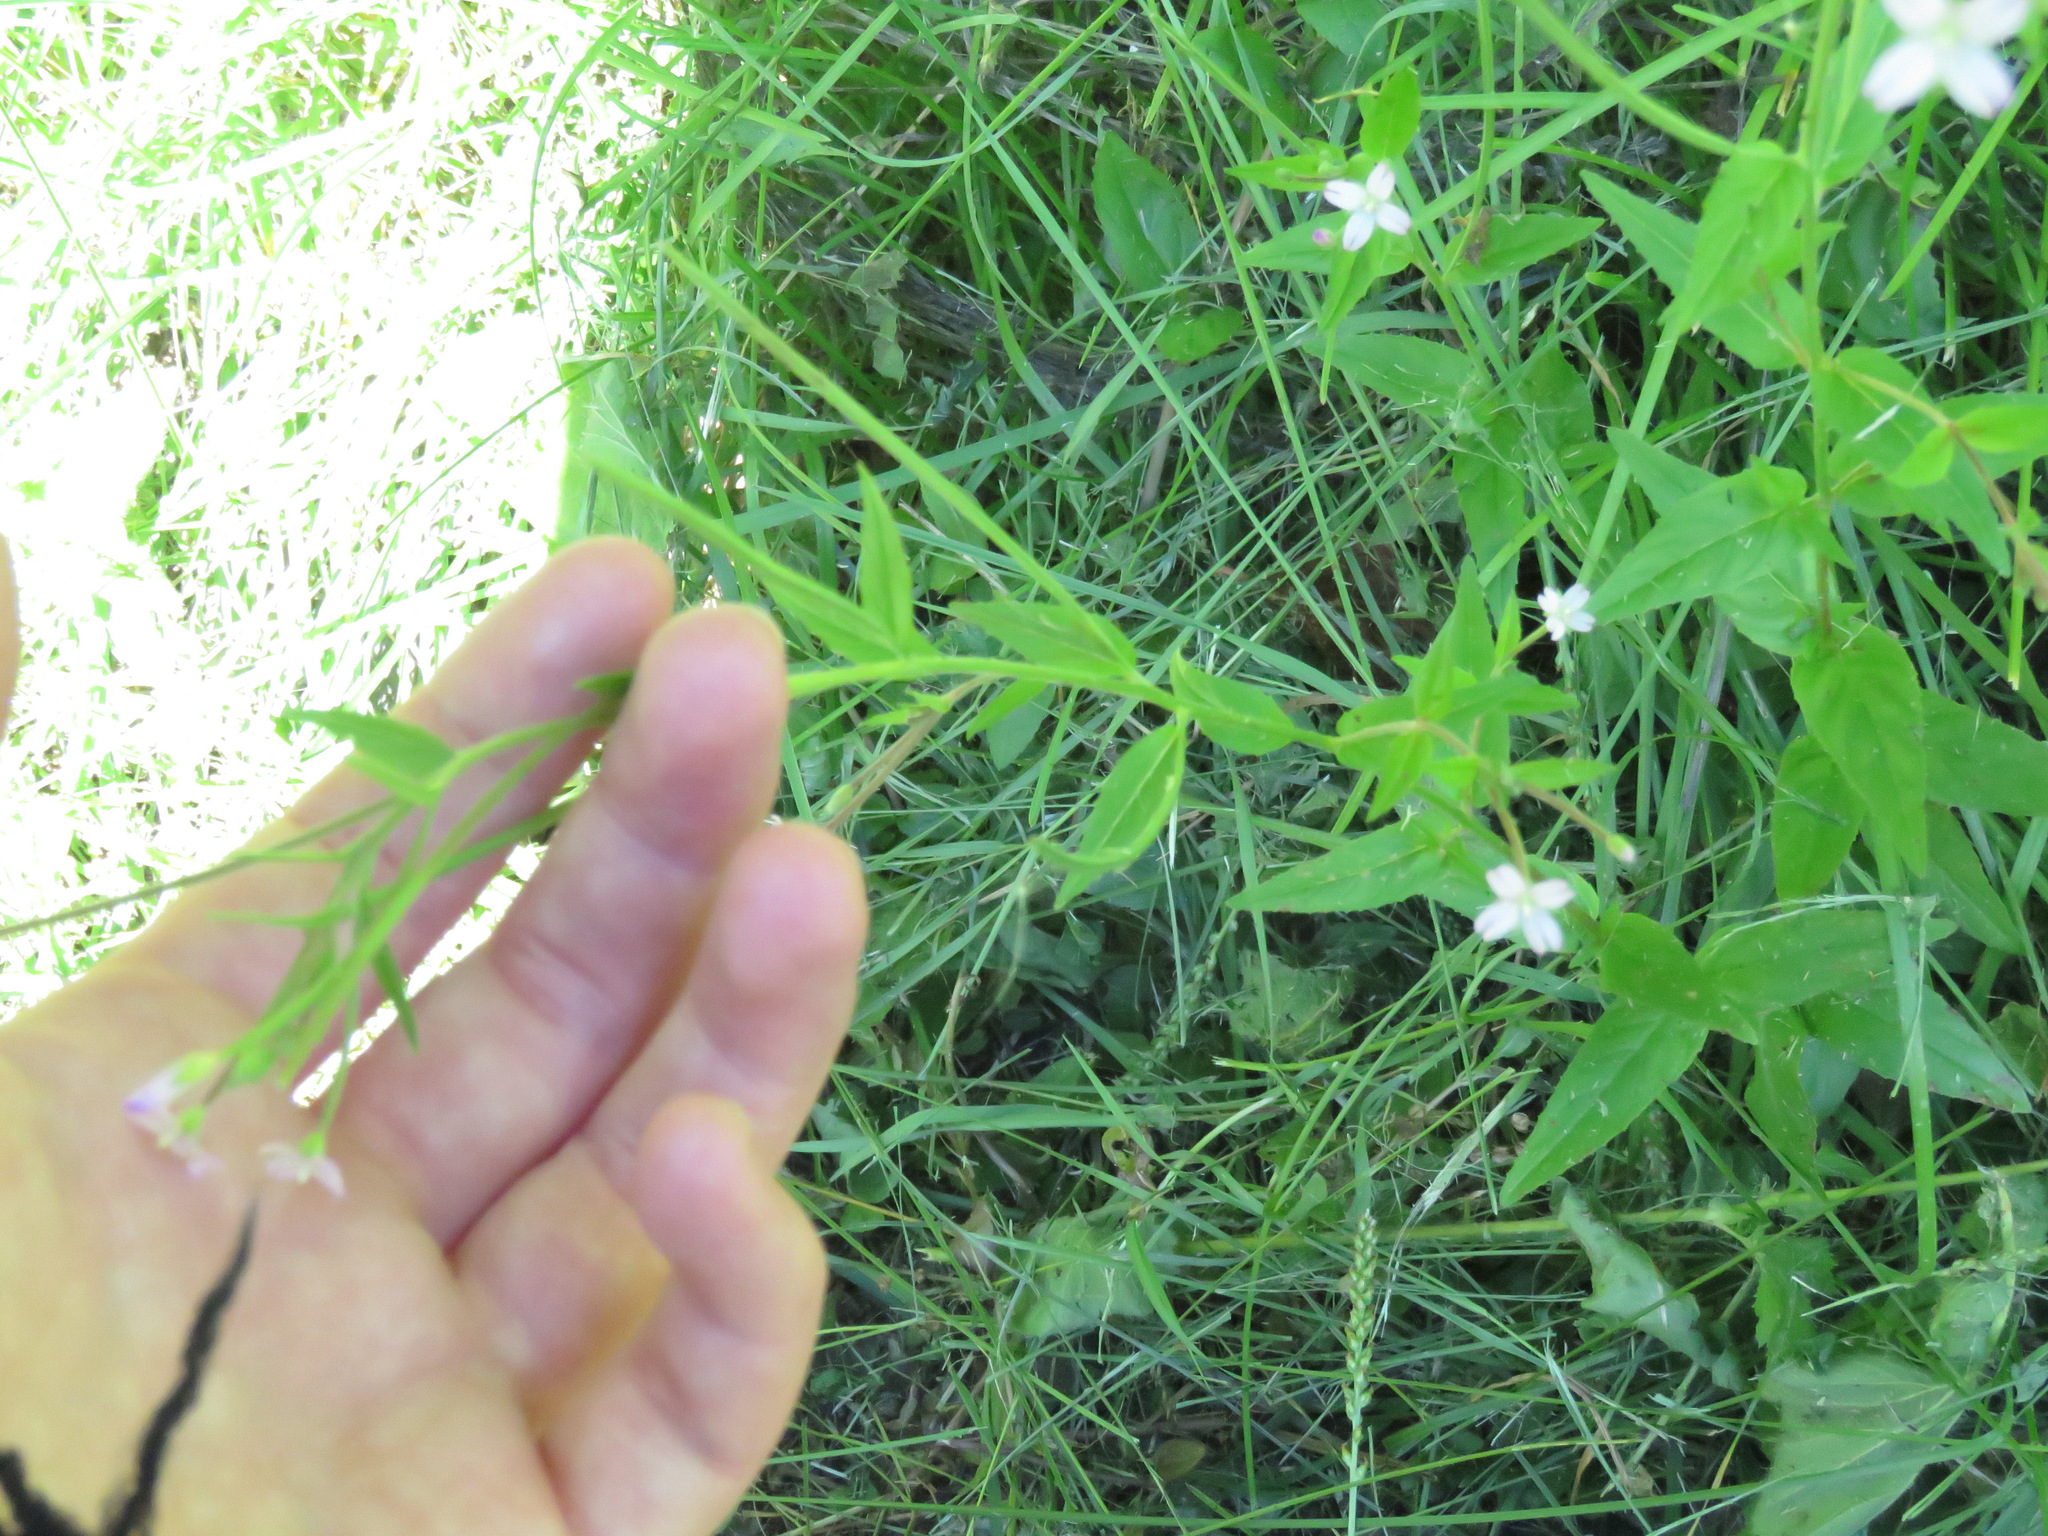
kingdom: Plantae
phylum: Tracheophyta
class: Magnoliopsida
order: Myrtales
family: Onagraceae
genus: Epilobium
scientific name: Epilobium ciliatum
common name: American willowherb
